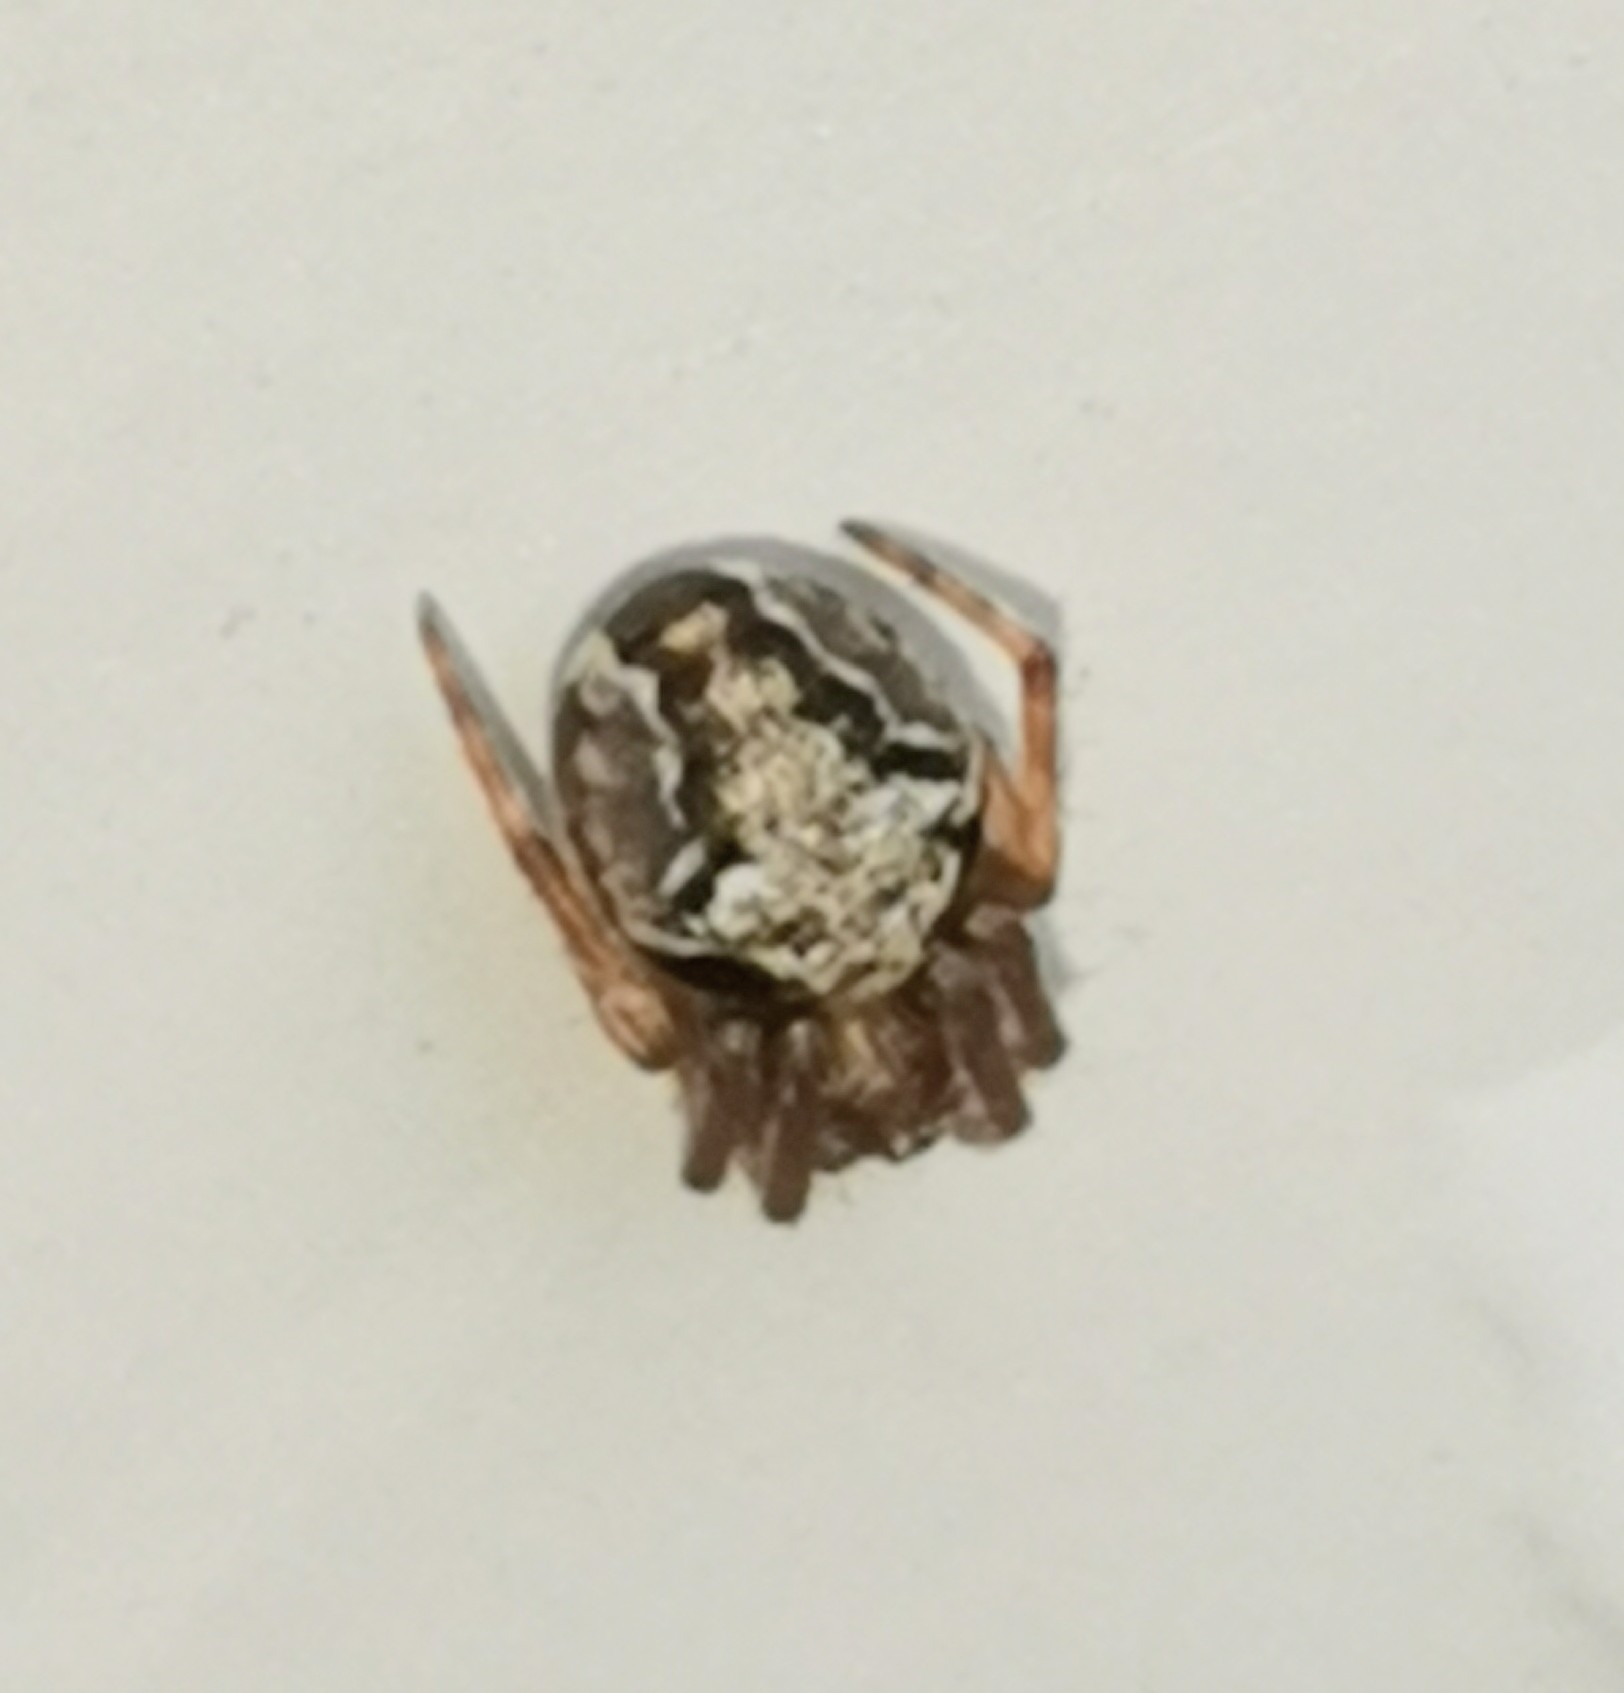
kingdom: Animalia
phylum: Arthropoda
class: Arachnida
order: Araneae
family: Araneidae
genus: Araneus
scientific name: Araneus sturmi
